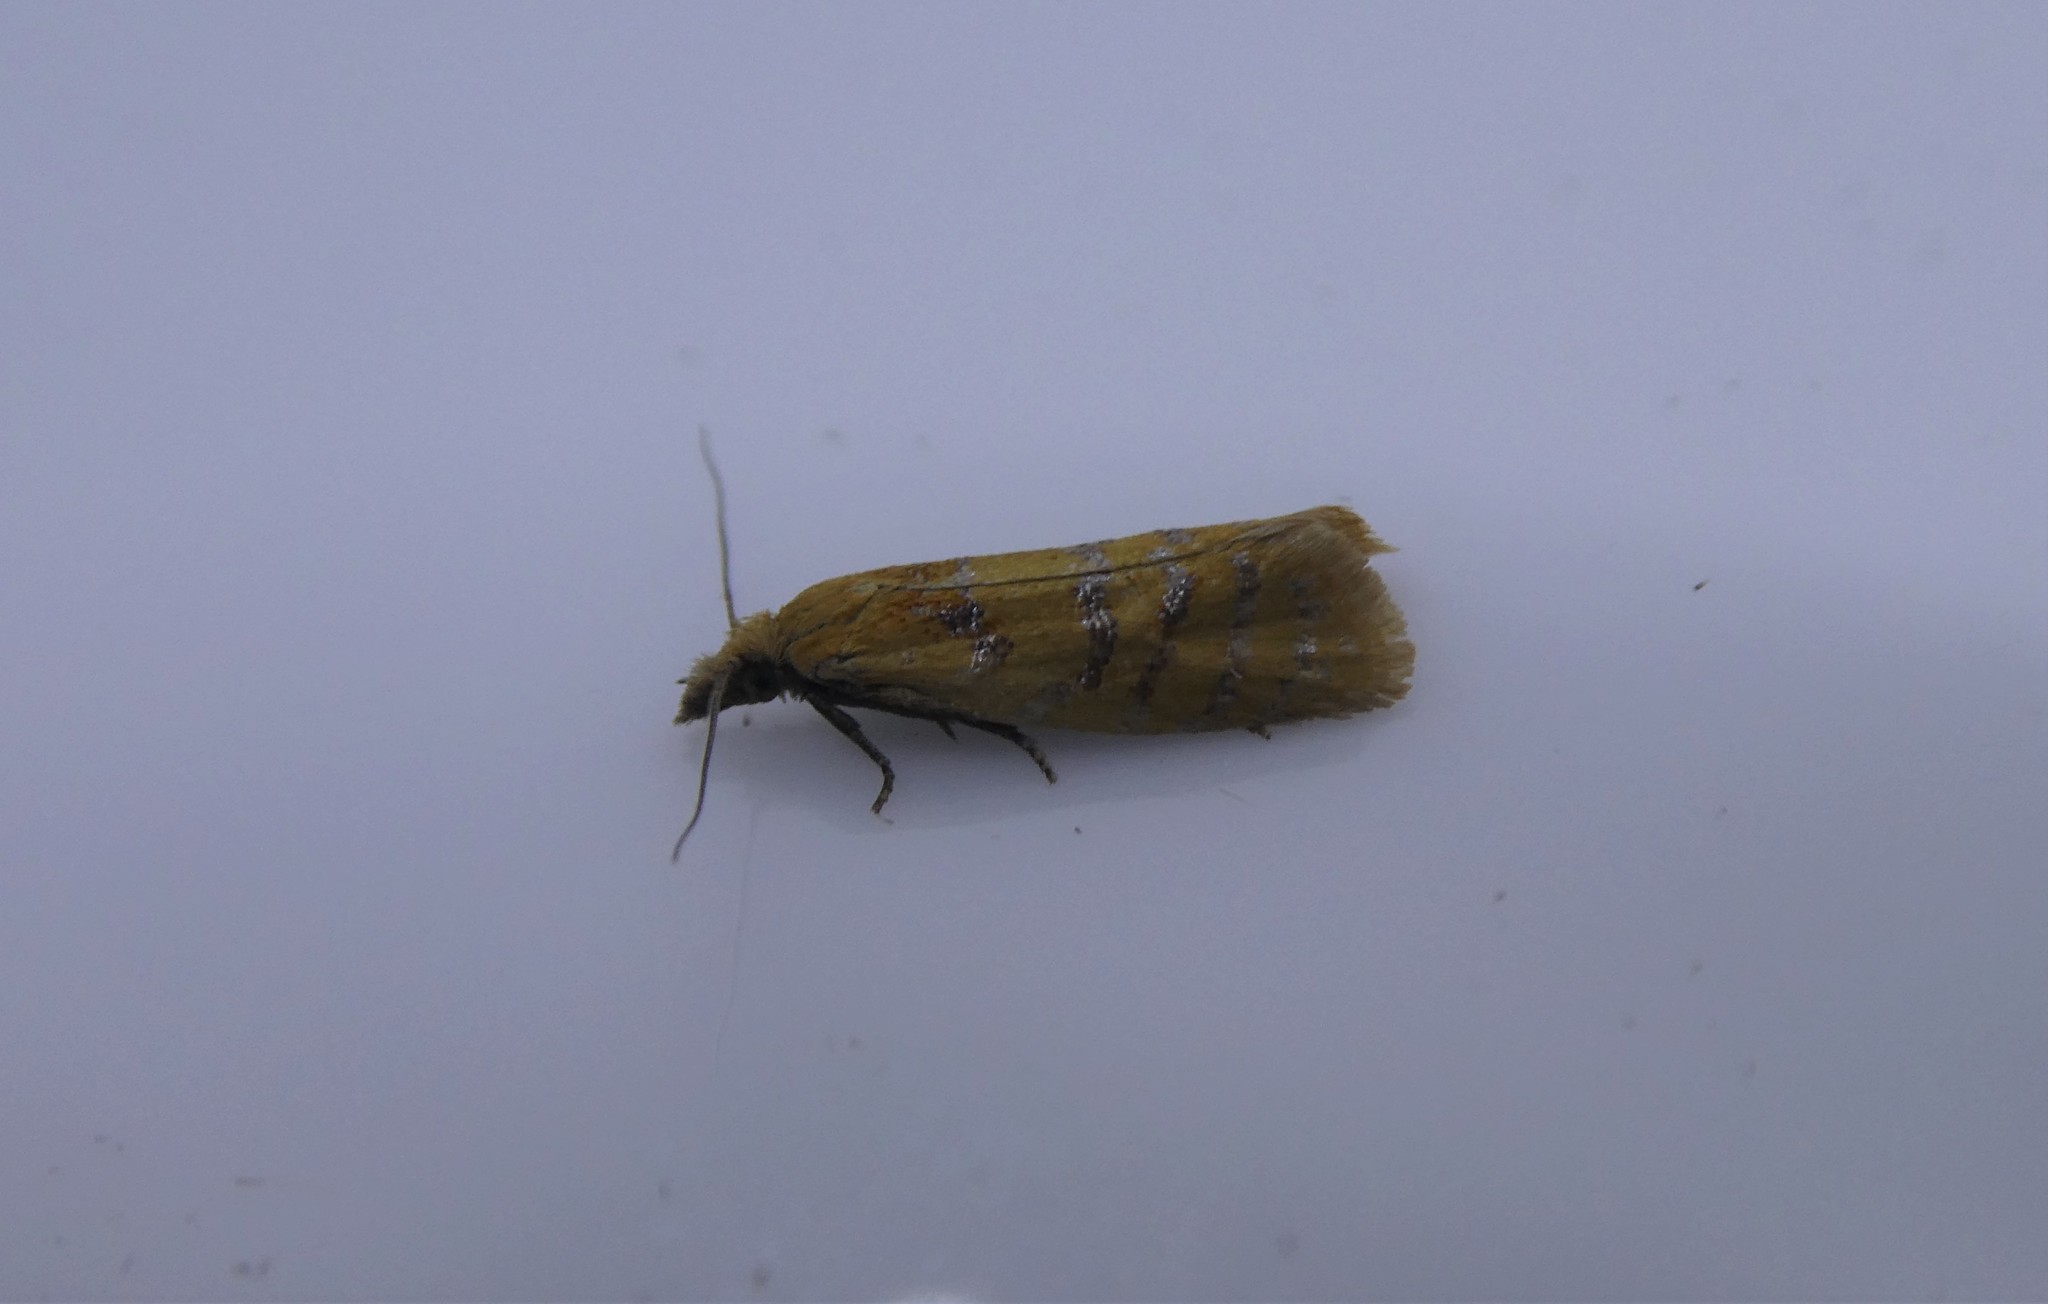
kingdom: Animalia
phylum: Arthropoda
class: Insecta
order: Lepidoptera
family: Tortricidae
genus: Phtheochroa
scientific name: Phtheochroa vitellinana
